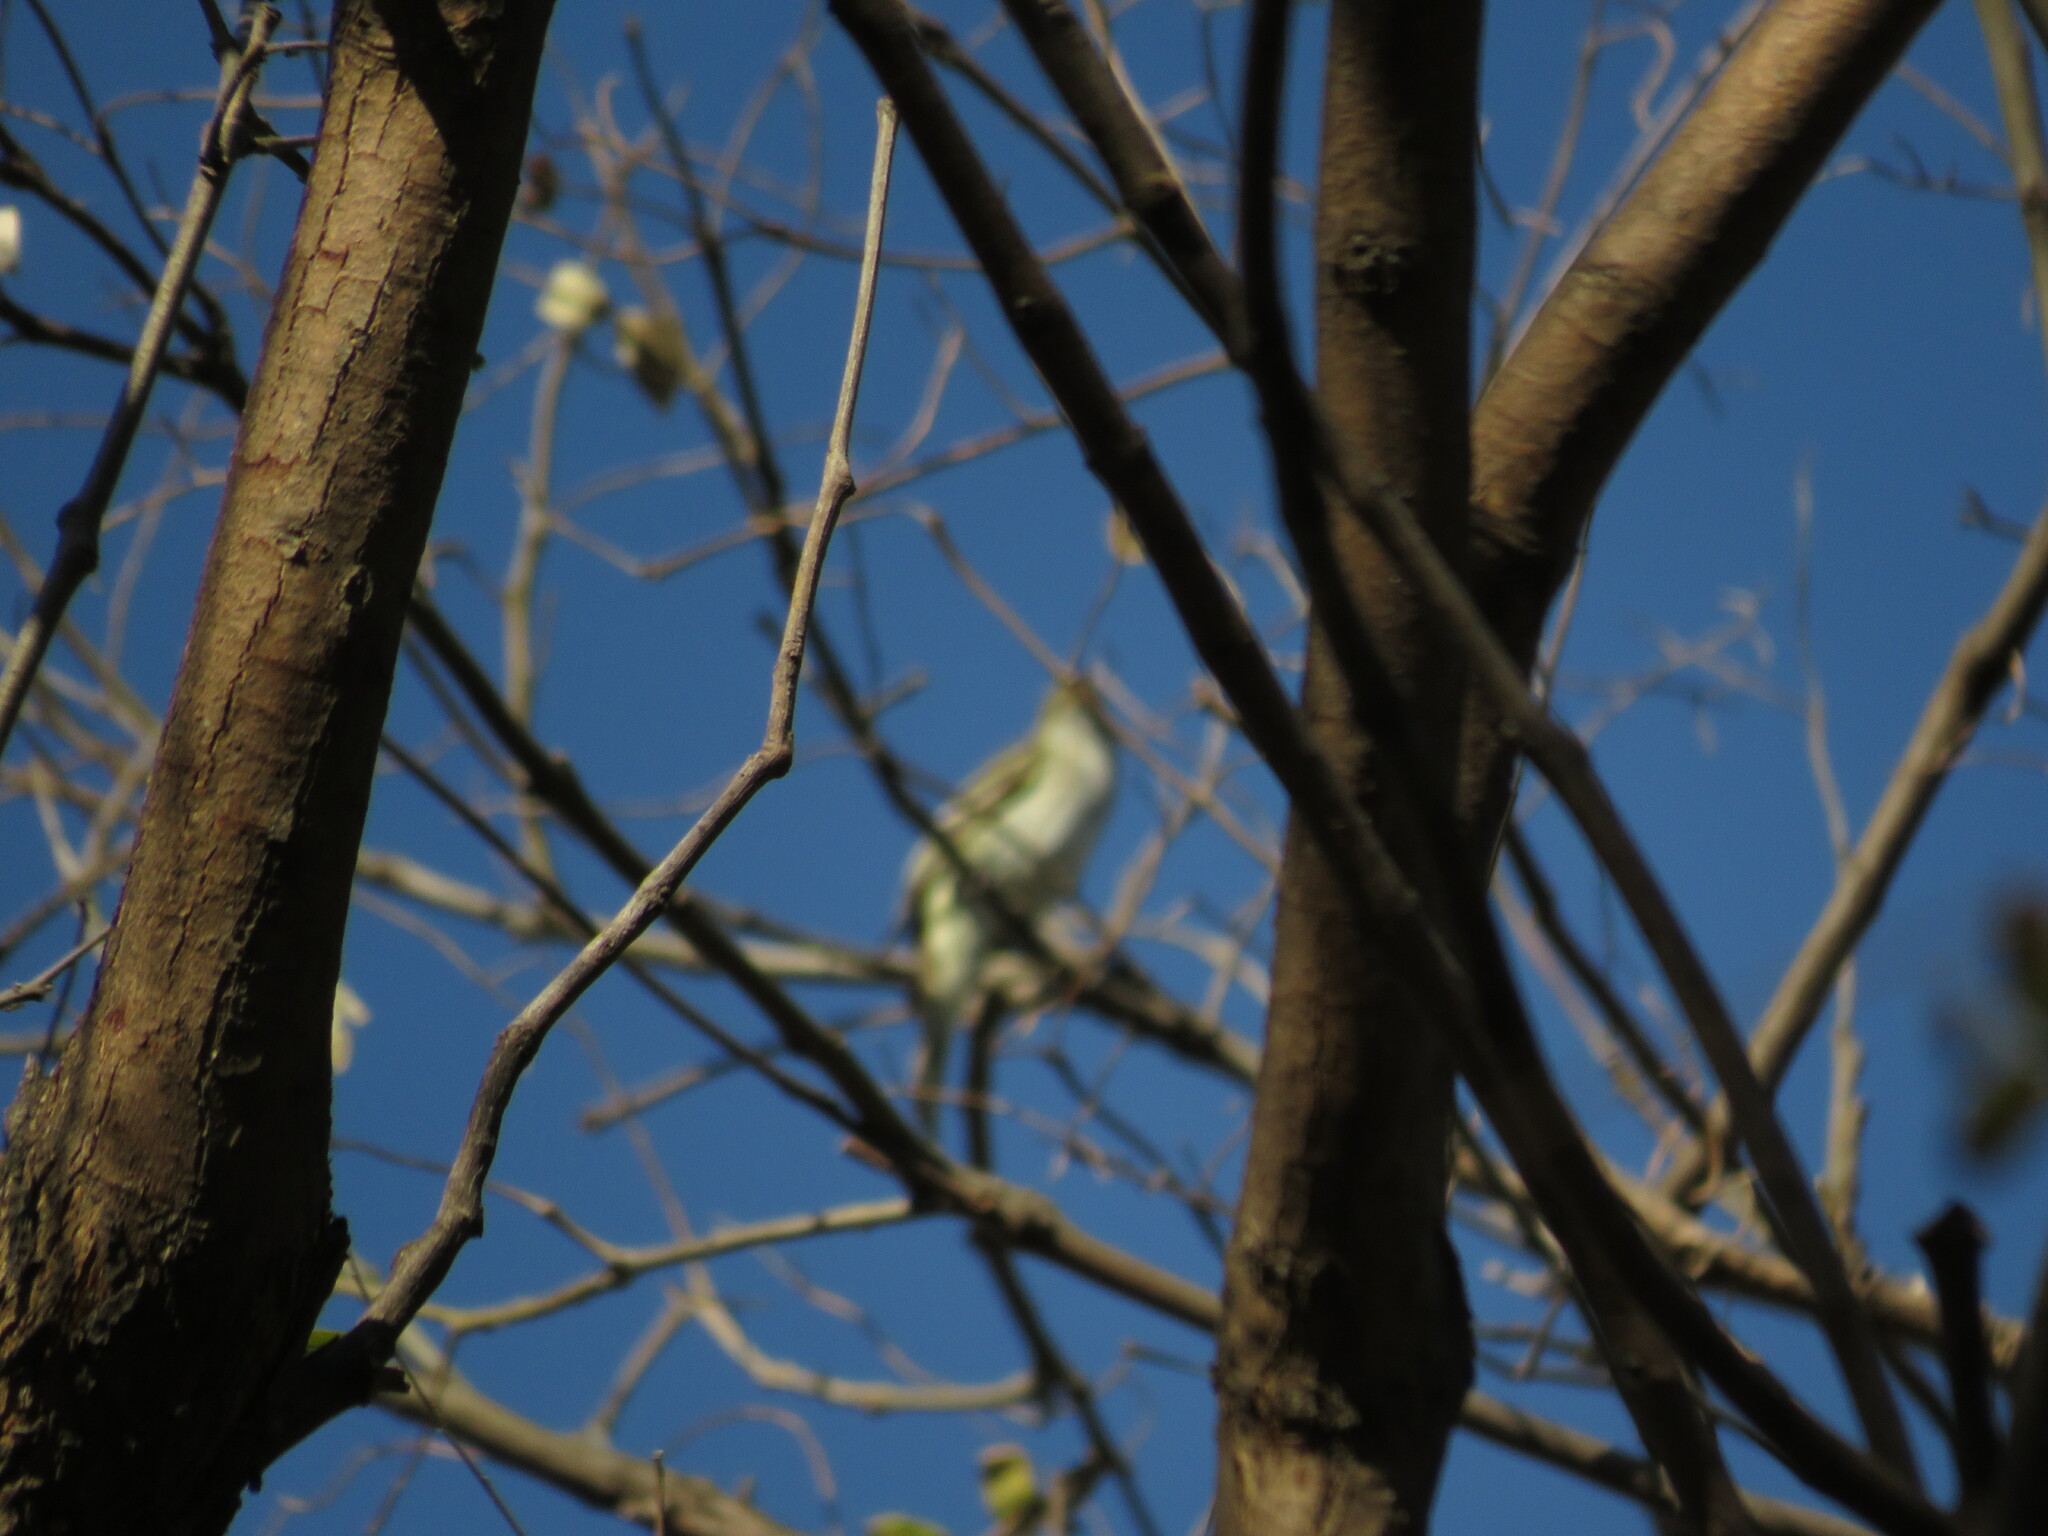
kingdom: Animalia
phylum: Chordata
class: Aves
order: Passeriformes
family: Tyrannidae
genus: Elaenia
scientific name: Elaenia parvirostris
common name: Small-billed elaenia
